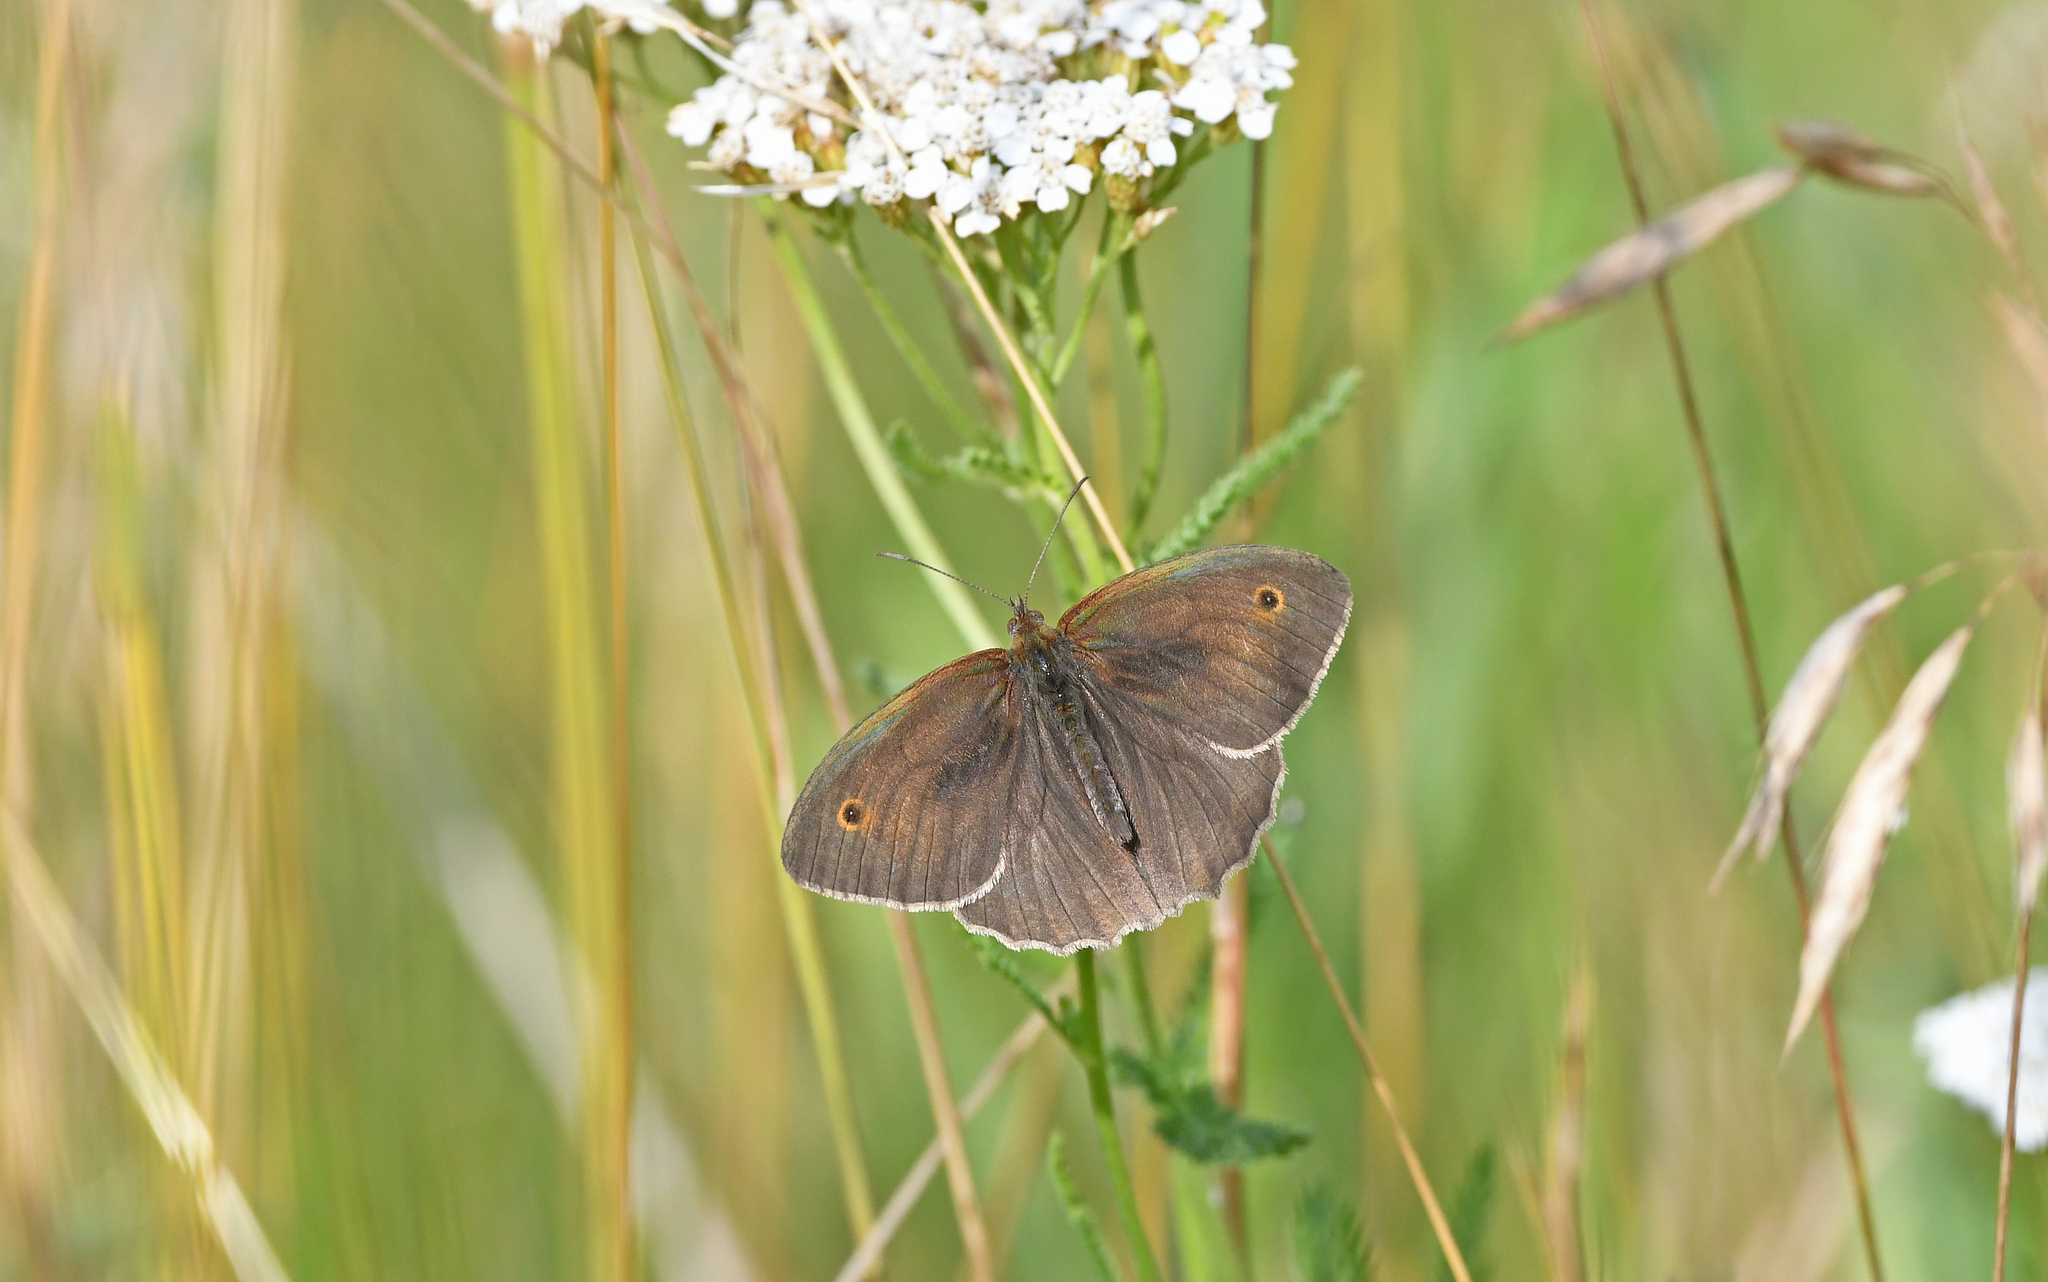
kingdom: Animalia
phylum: Arthropoda
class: Insecta
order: Lepidoptera
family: Nymphalidae
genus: Maniola
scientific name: Maniola jurtina
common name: Meadow brown
